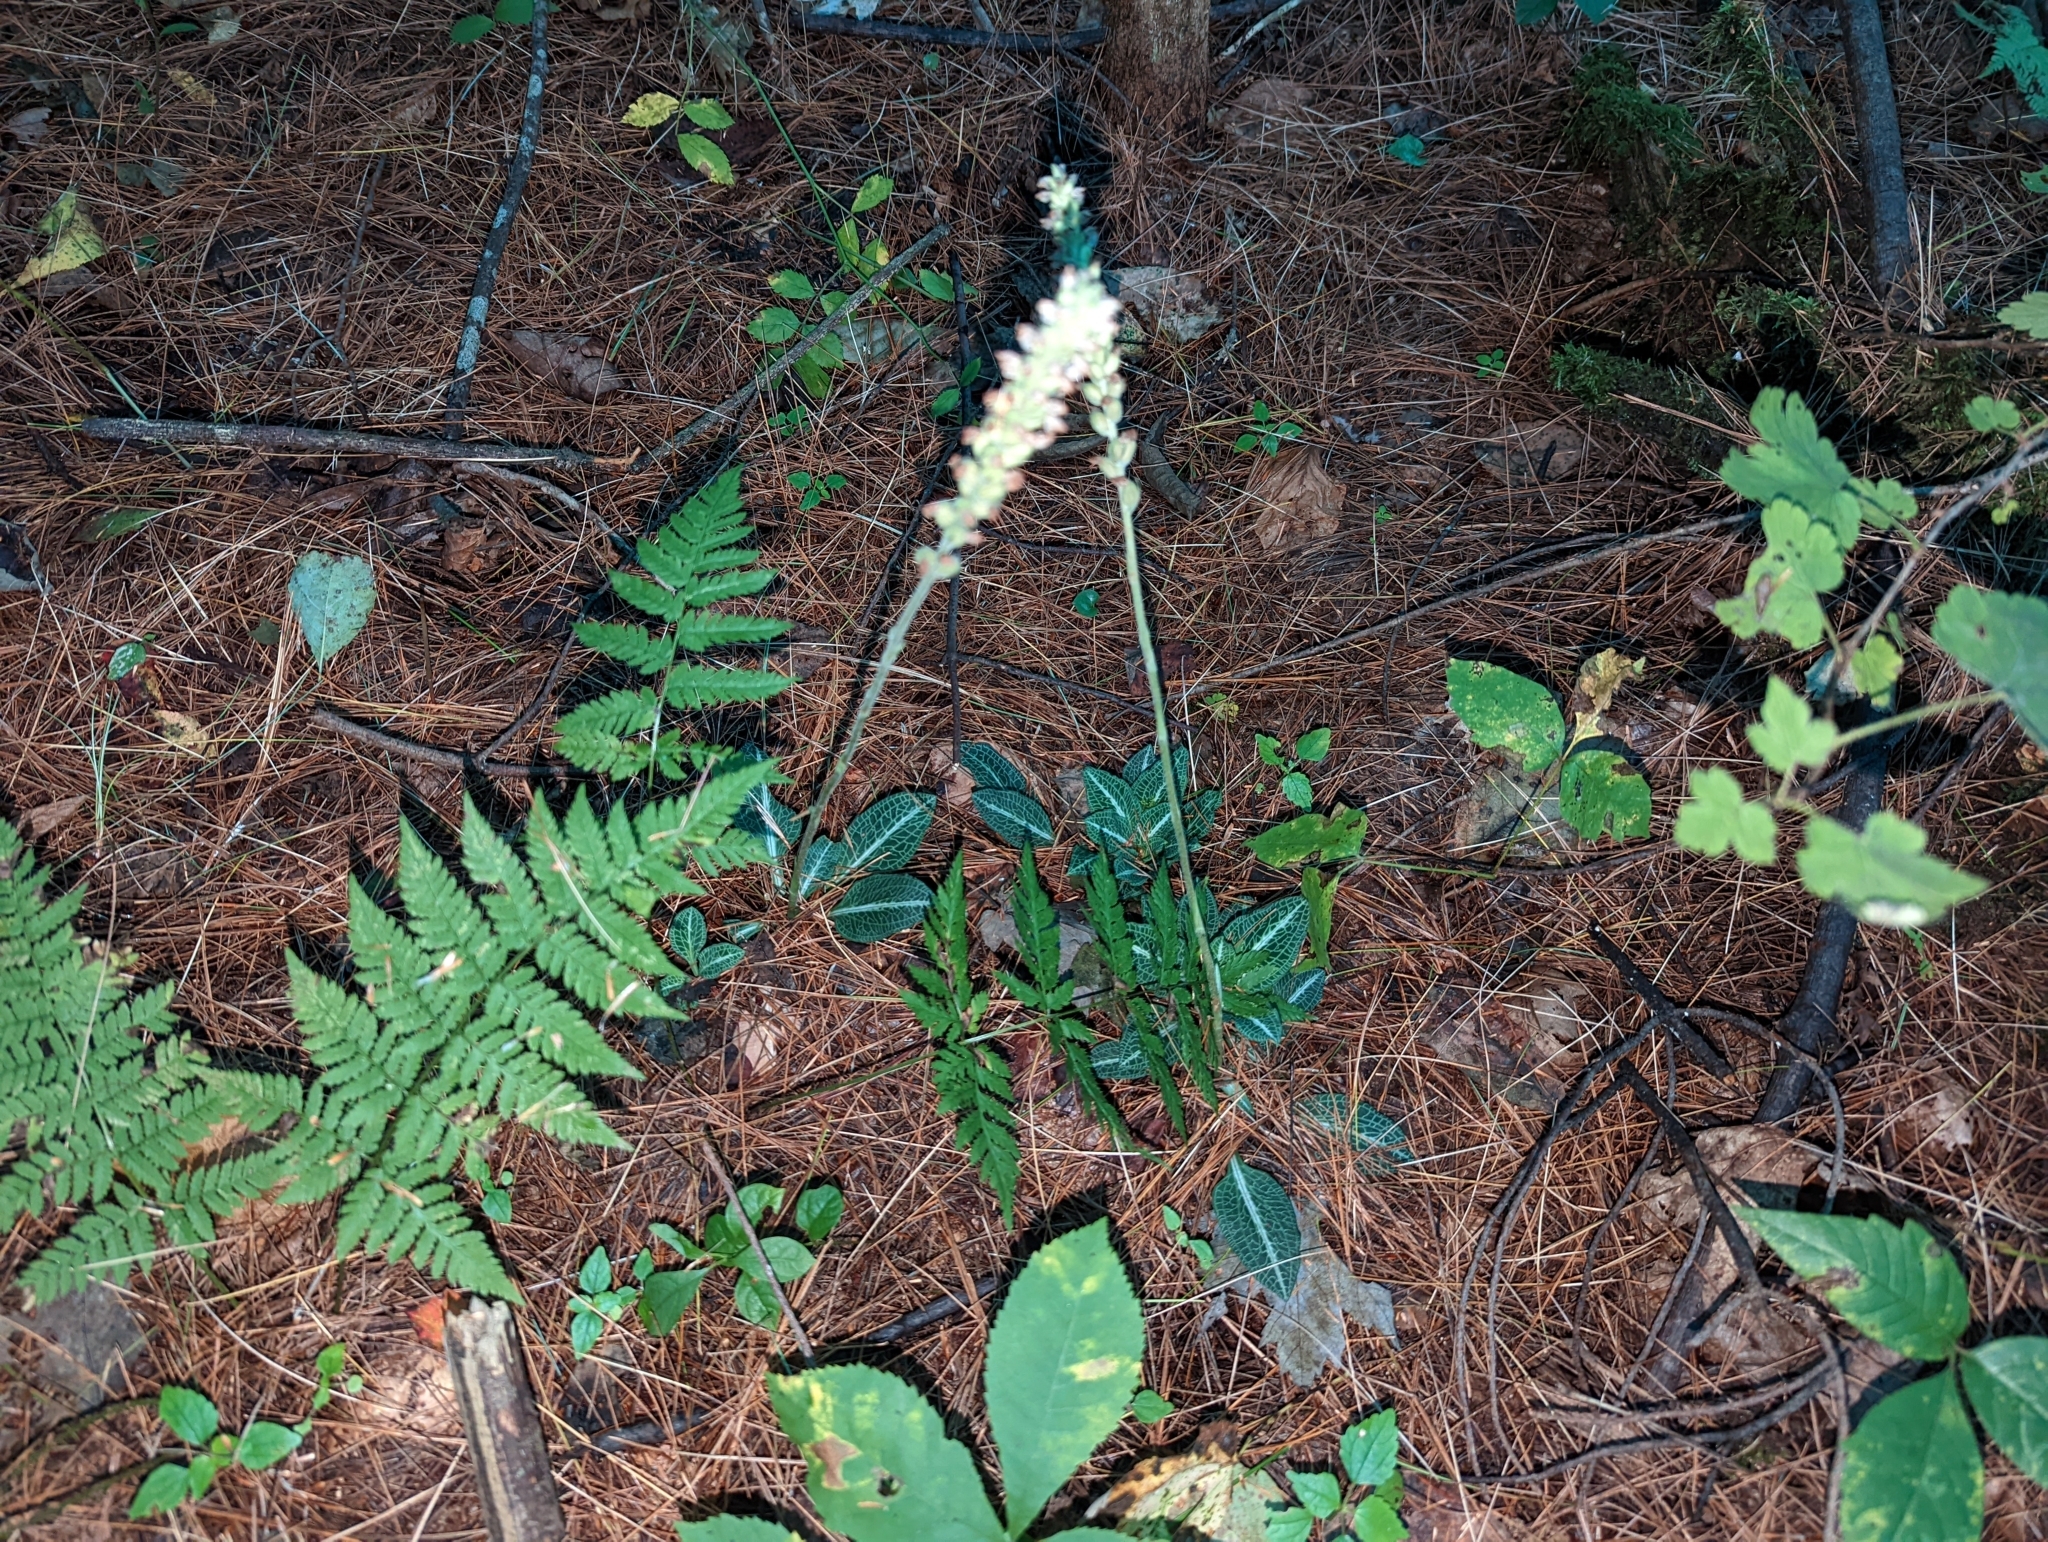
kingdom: Plantae
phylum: Tracheophyta
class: Liliopsida
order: Asparagales
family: Orchidaceae
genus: Goodyera
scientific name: Goodyera pubescens
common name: Downy rattlesnake-plantain
